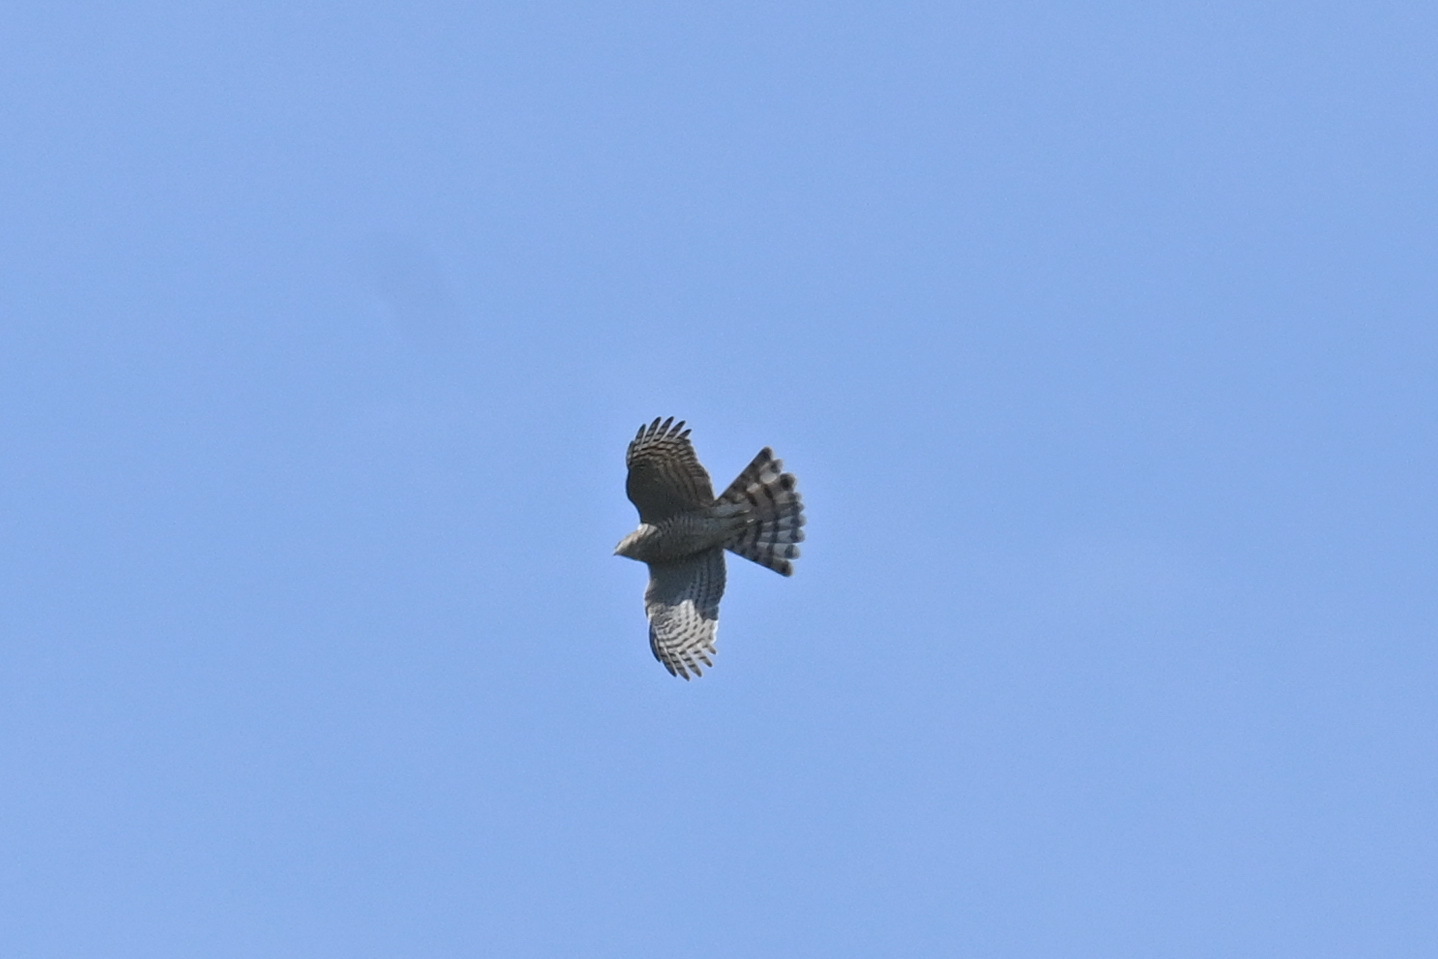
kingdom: Animalia
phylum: Chordata
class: Aves
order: Accipitriformes
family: Accipitridae
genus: Accipiter
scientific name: Accipiter nisus
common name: Eurasian sparrowhawk
